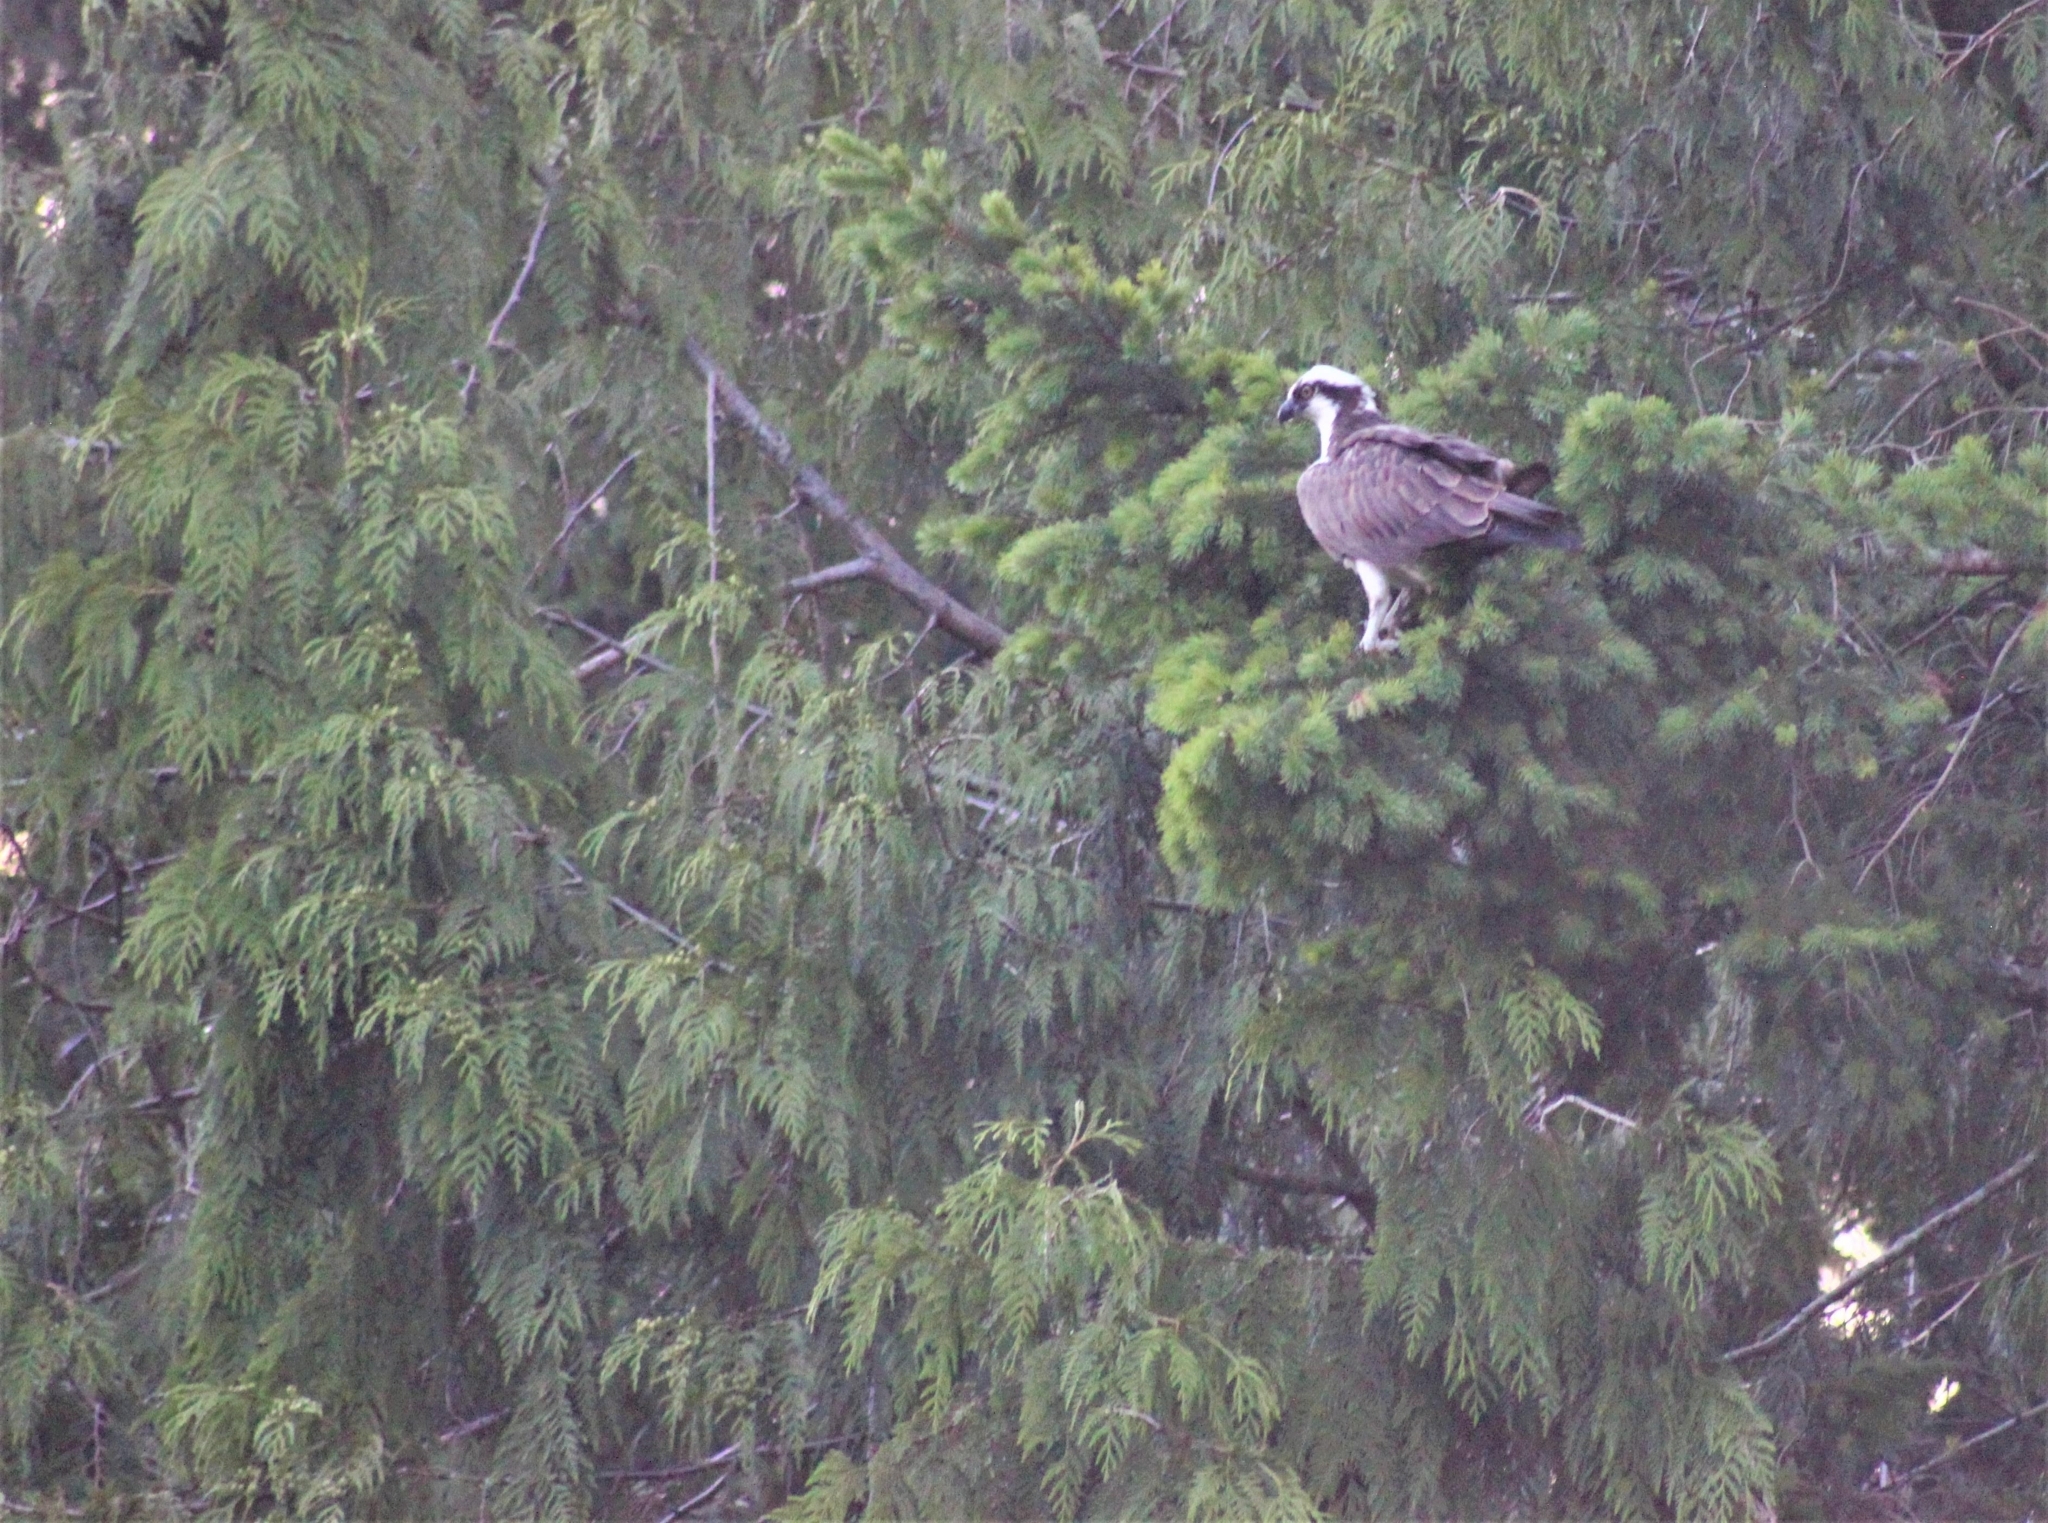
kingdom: Animalia
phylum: Chordata
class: Aves
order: Accipitriformes
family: Pandionidae
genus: Pandion
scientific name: Pandion haliaetus
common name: Osprey
